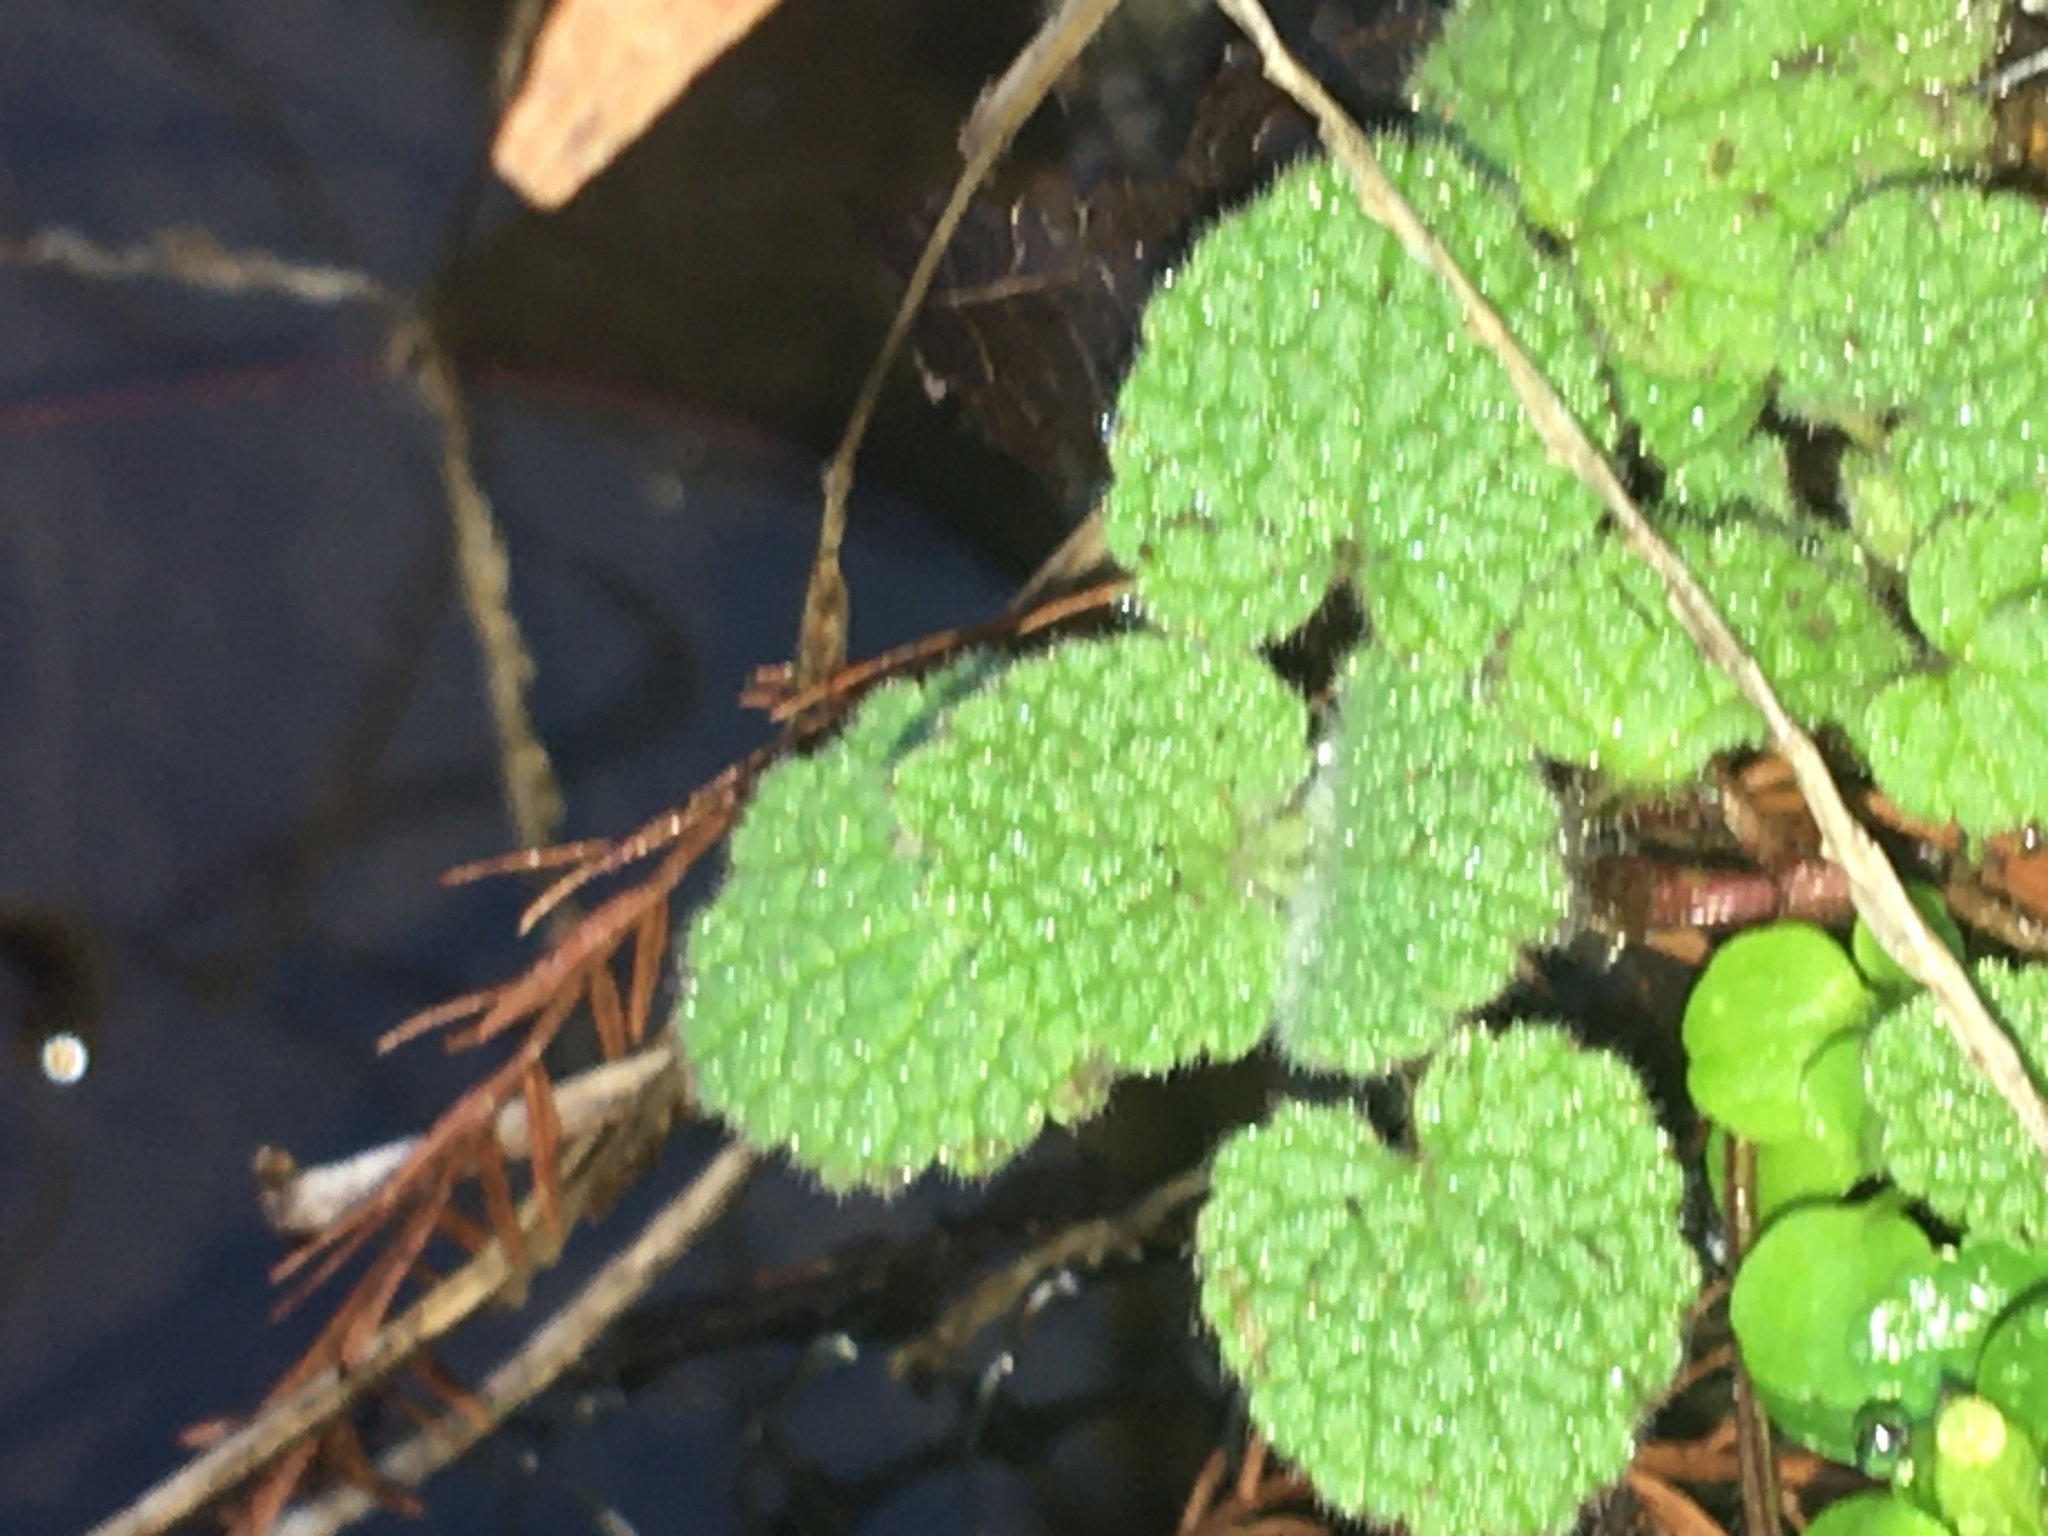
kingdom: Plantae
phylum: Tracheophyta
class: Magnoliopsida
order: Lamiales
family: Lamiaceae
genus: Lamium
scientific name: Lamium purpureum
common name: Red dead-nettle
